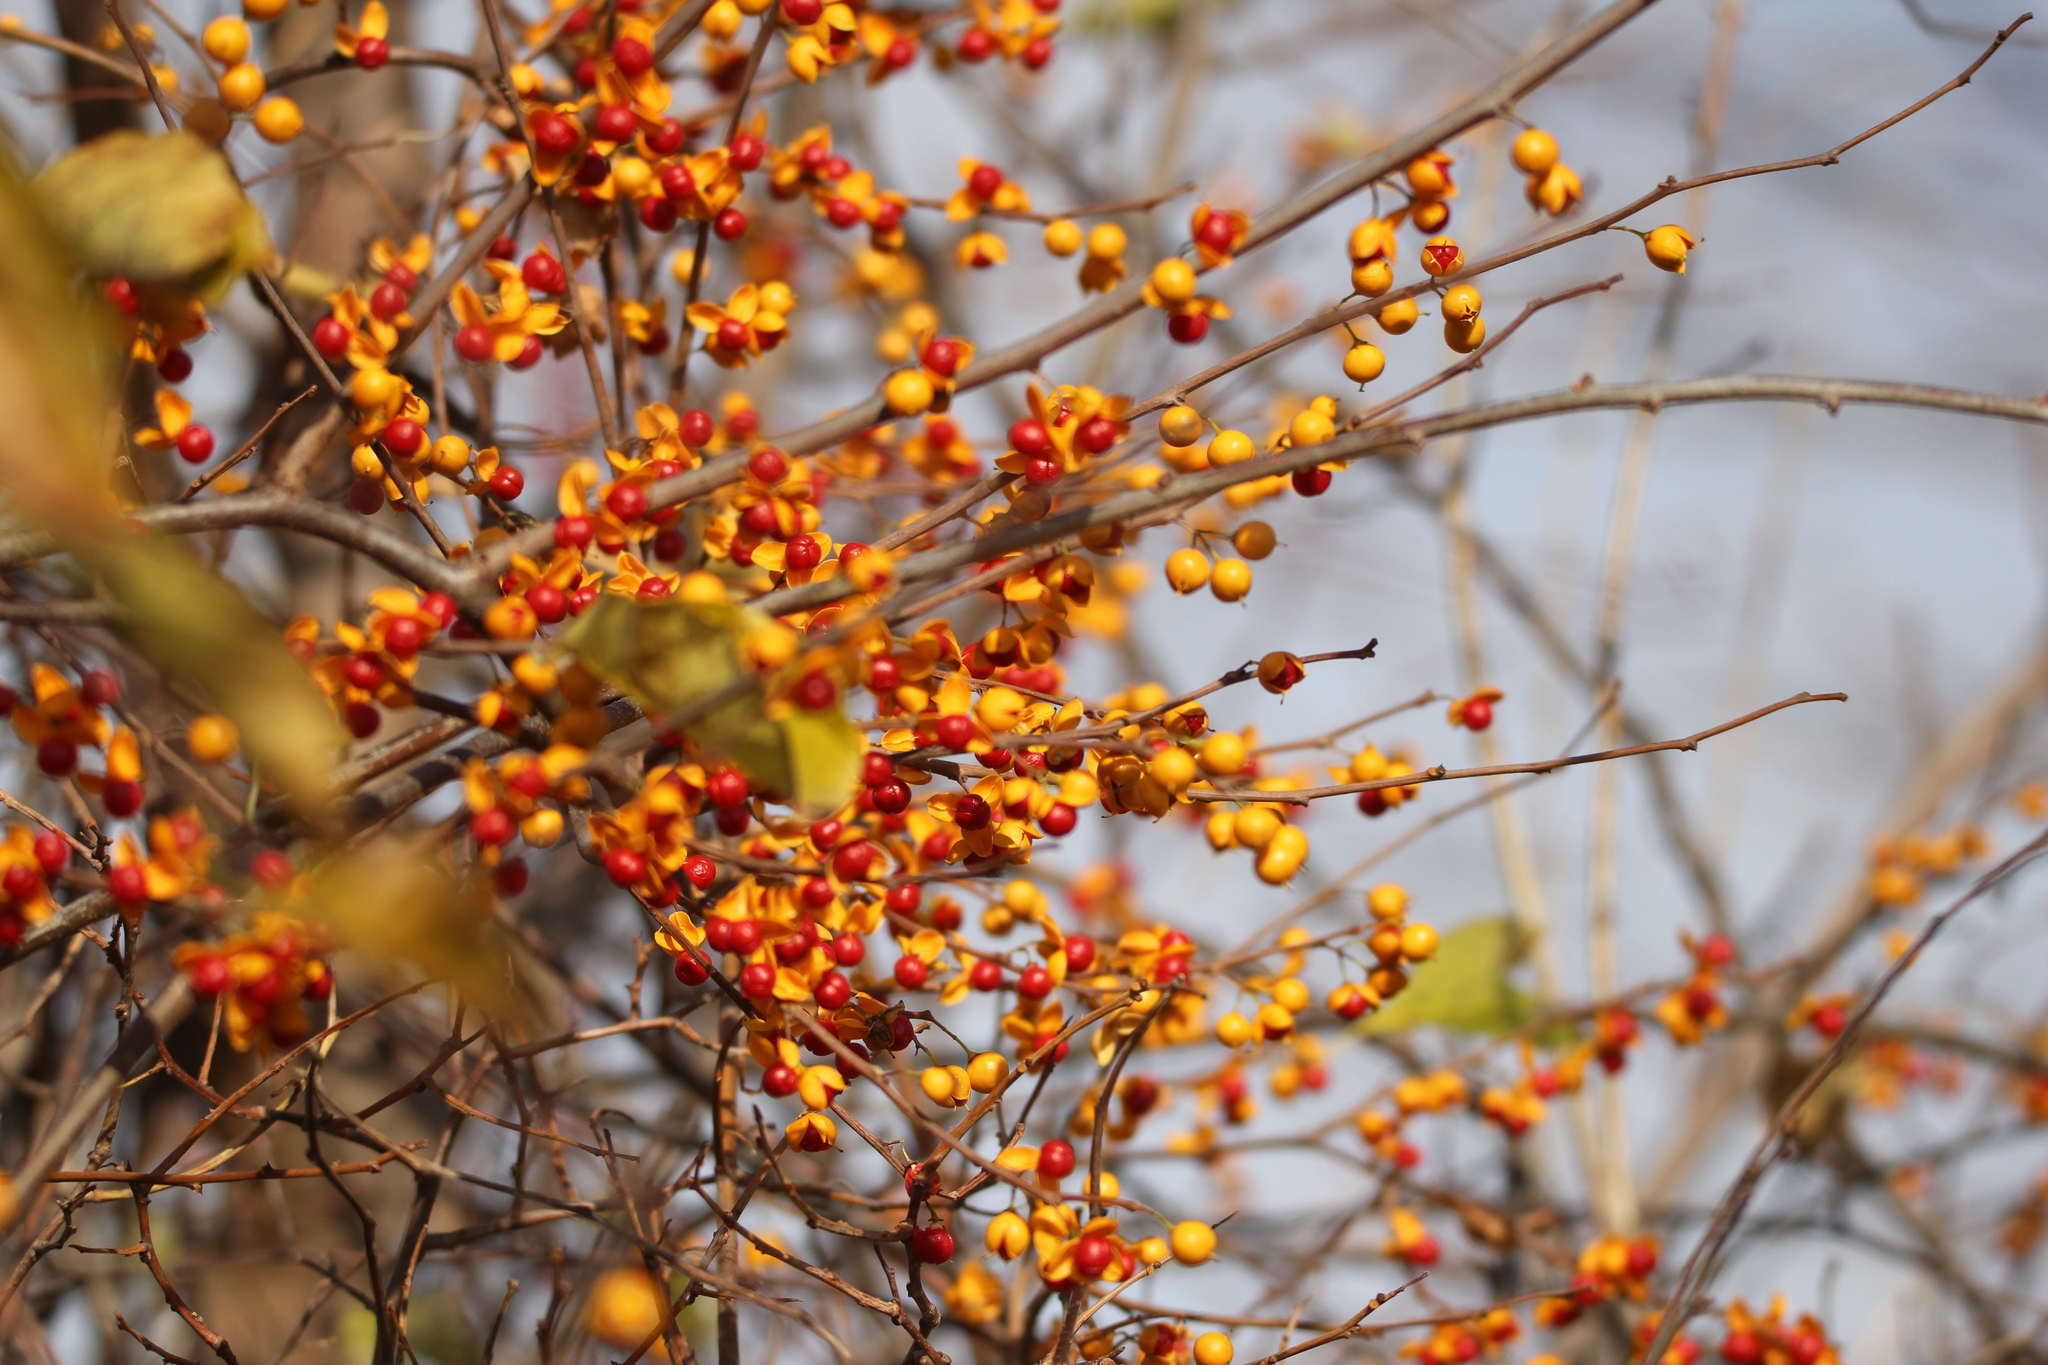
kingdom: Plantae
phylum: Tracheophyta
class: Magnoliopsida
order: Celastrales
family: Celastraceae
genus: Celastrus
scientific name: Celastrus orbiculatus
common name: Oriental bittersweet
